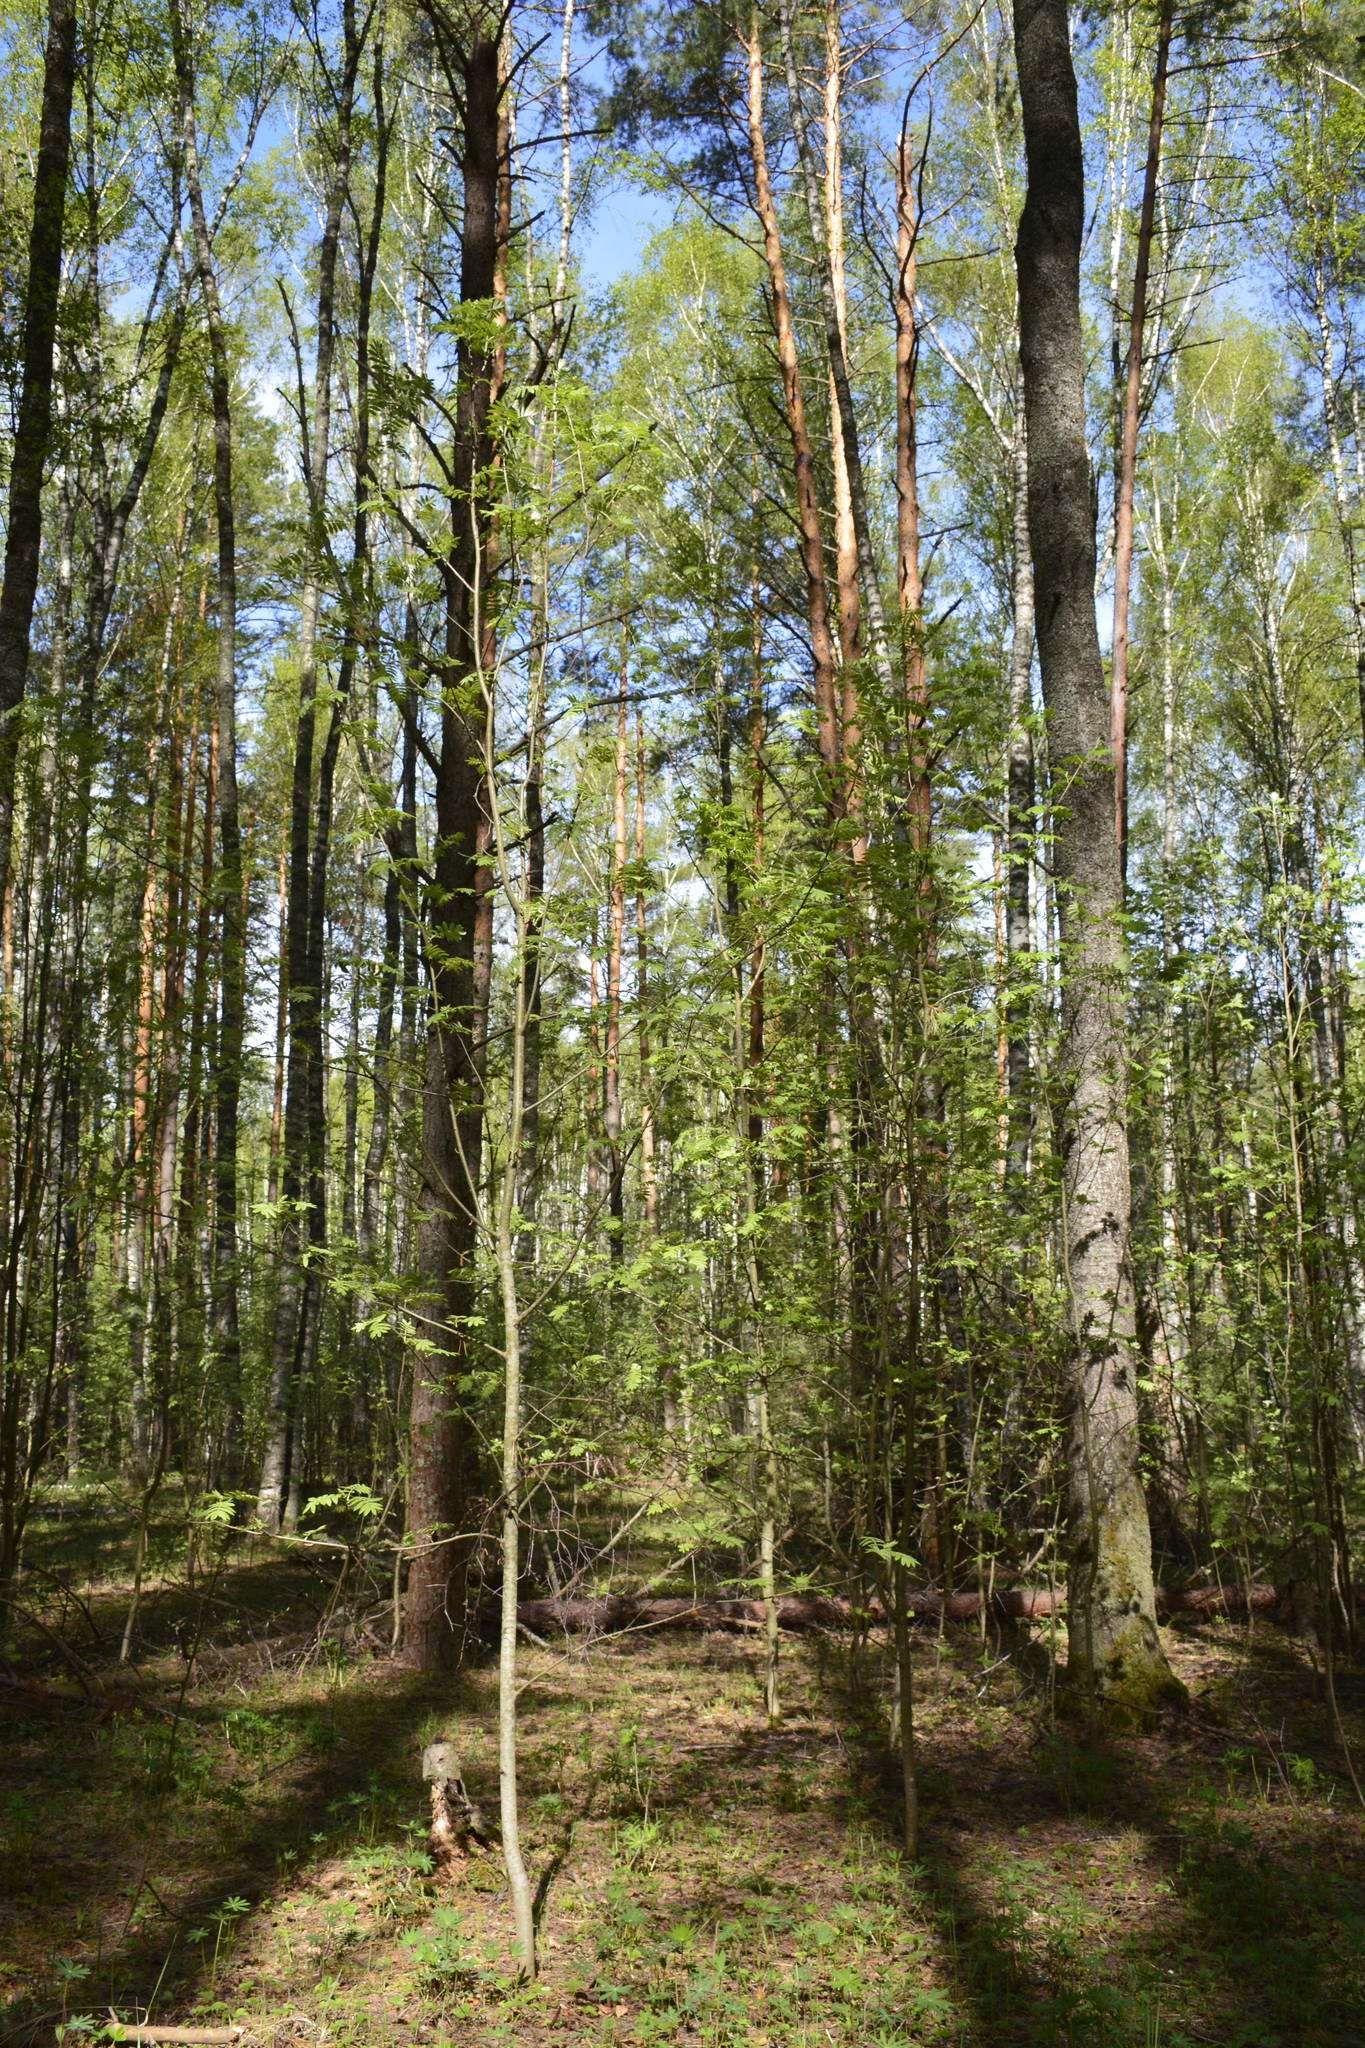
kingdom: Plantae
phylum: Tracheophyta
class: Magnoliopsida
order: Rosales
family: Rosaceae
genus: Sorbus
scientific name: Sorbus aucuparia
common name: Rowan
